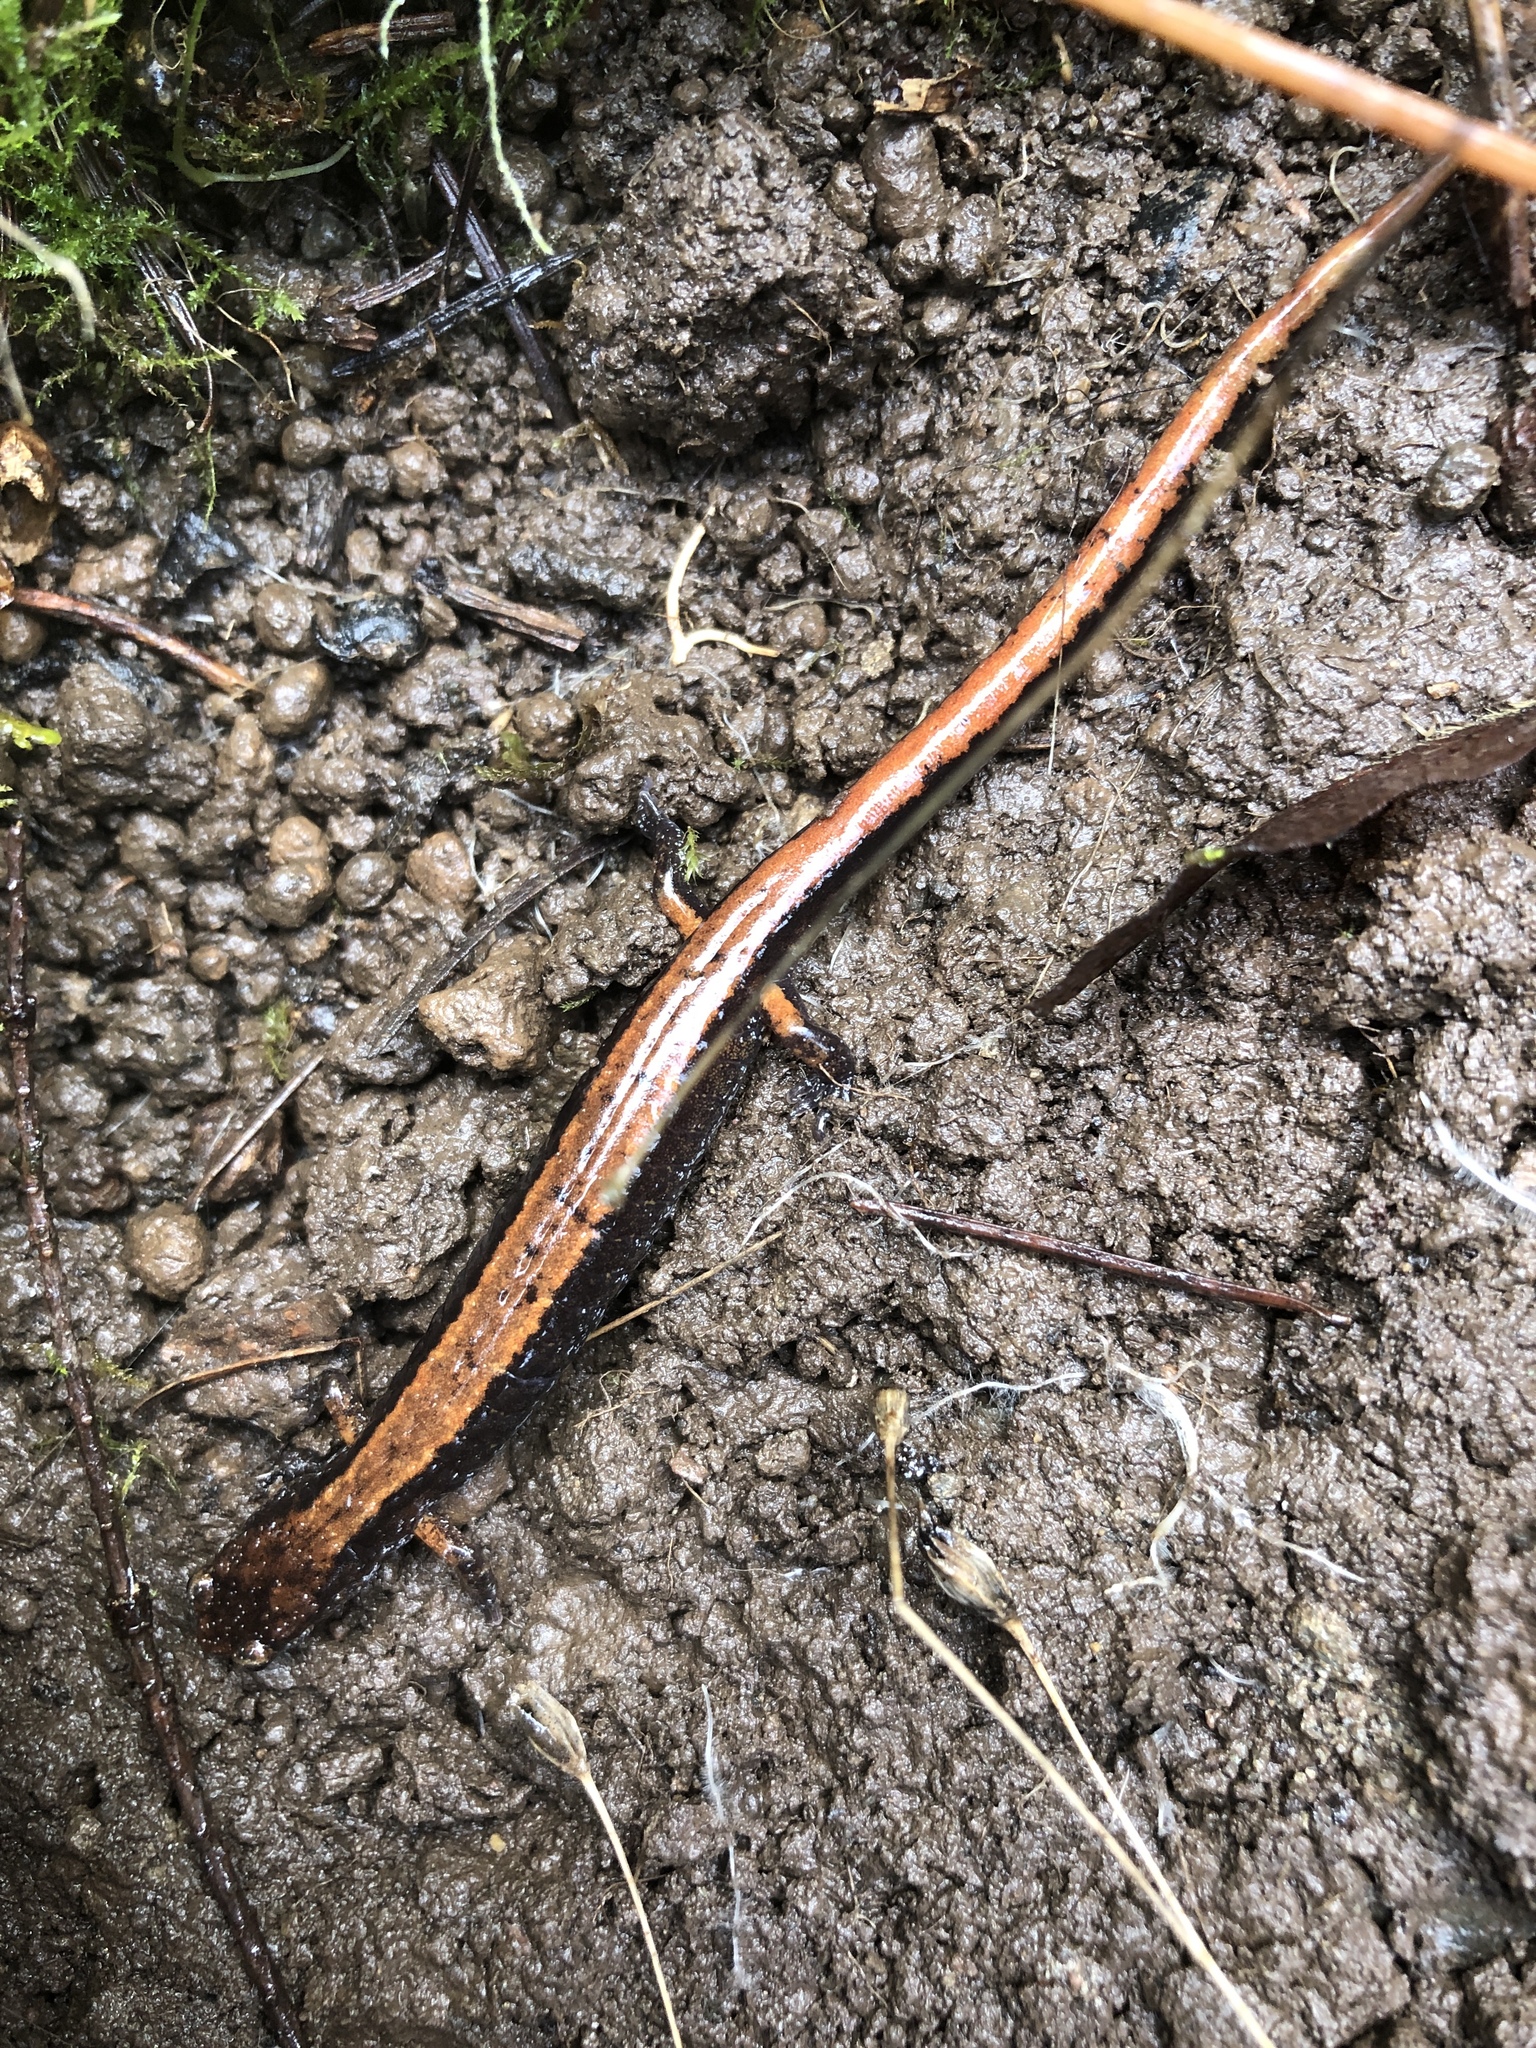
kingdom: Animalia
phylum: Chordata
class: Amphibia
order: Caudata
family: Plethodontidae
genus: Plethodon
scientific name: Plethodon vehiculum
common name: Western red-backed salamander
